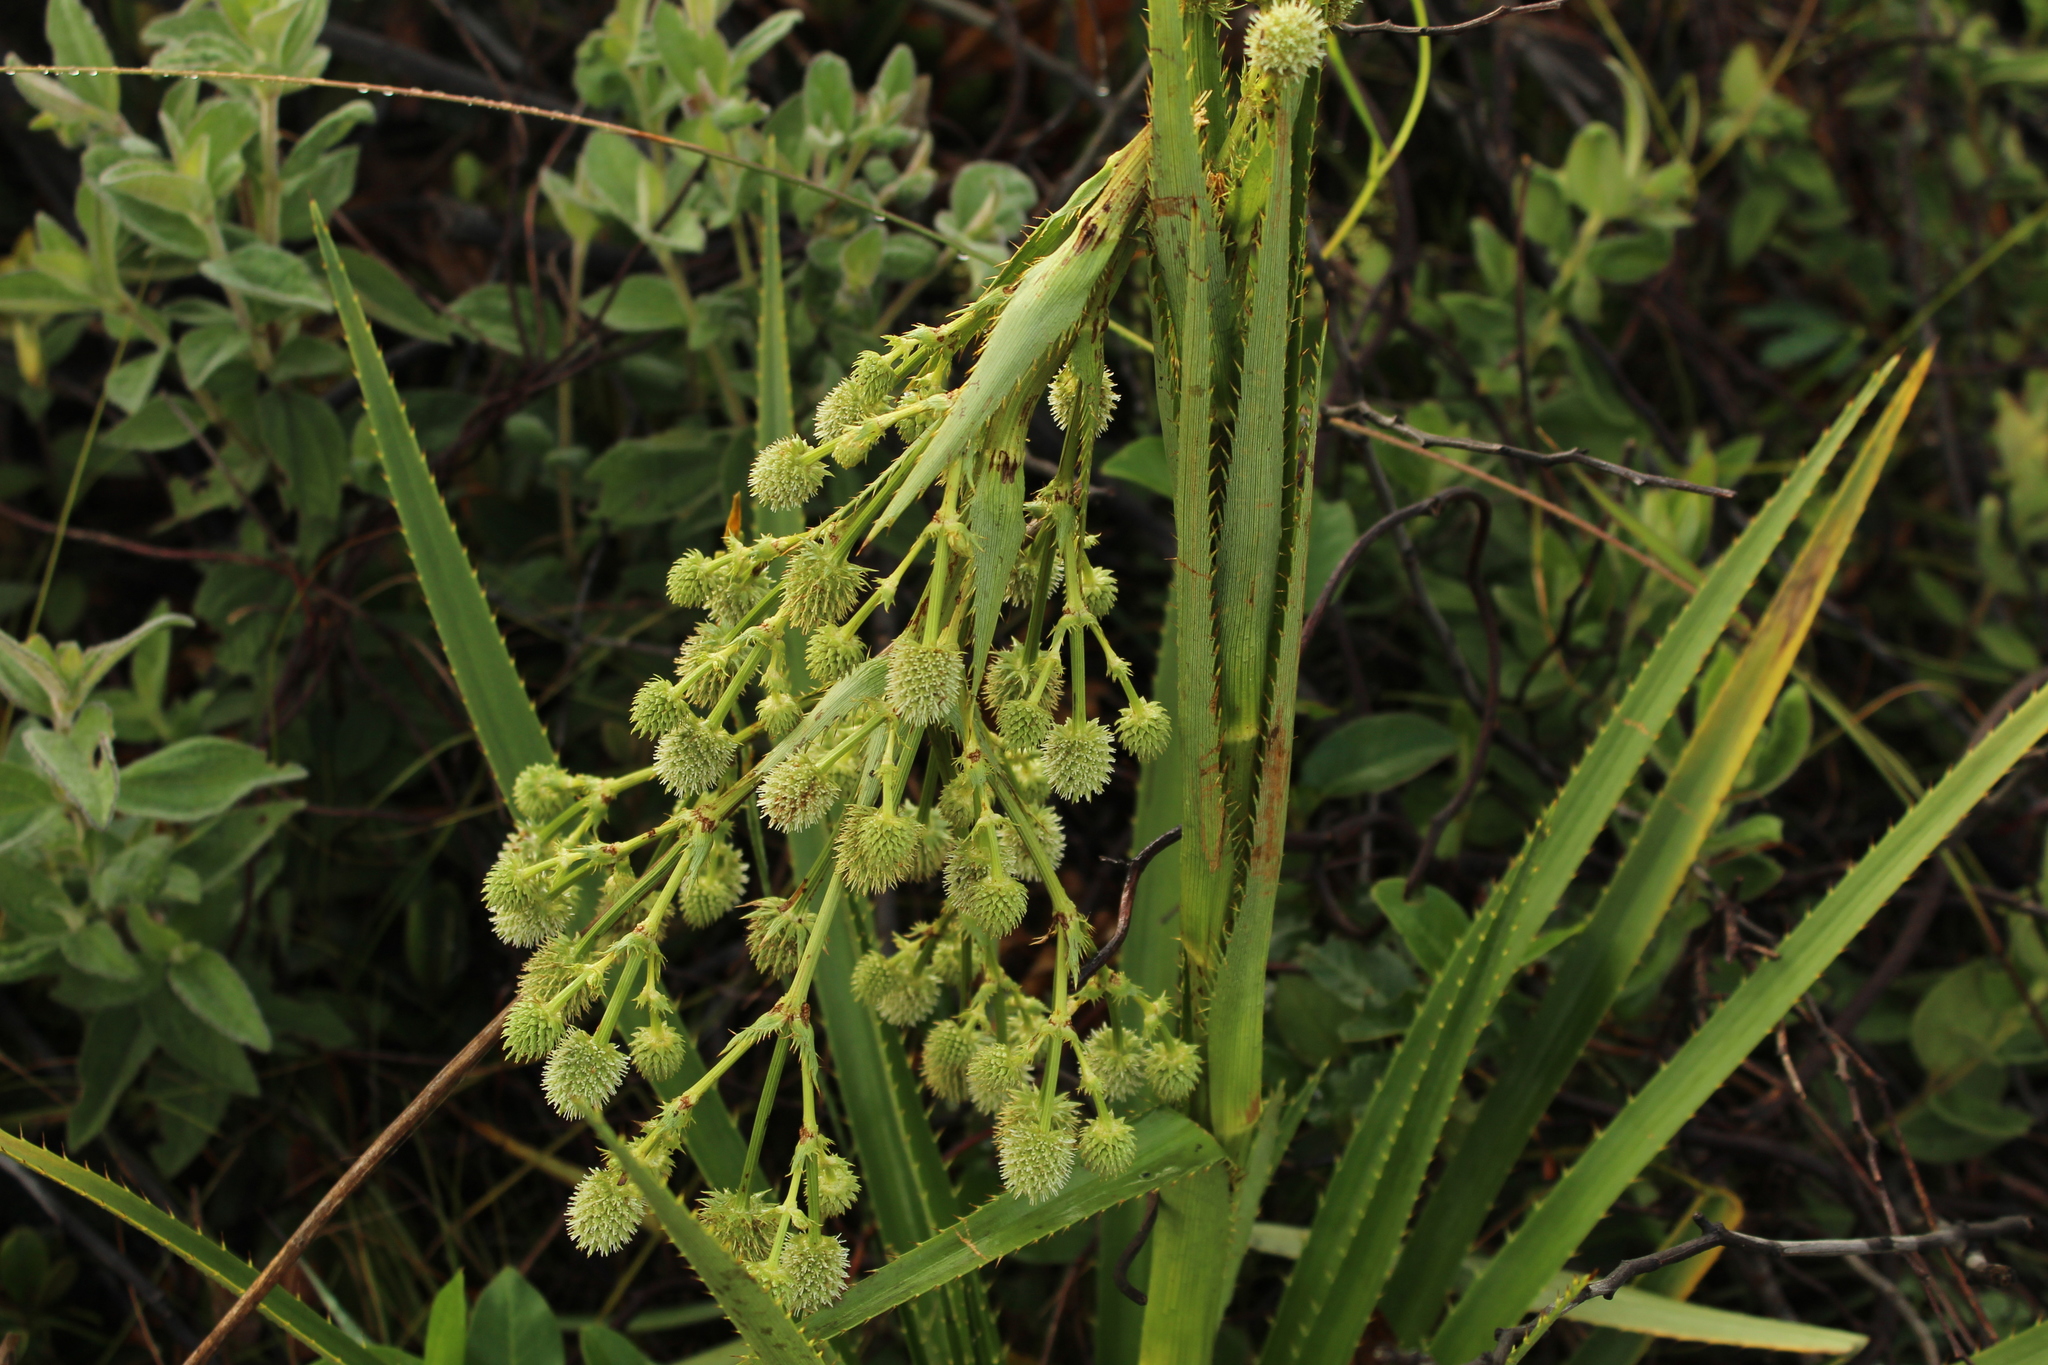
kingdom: Plantae
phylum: Tracheophyta
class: Magnoliopsida
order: Apiales
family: Apiaceae
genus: Eryngium
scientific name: Eryngium humboldtii
